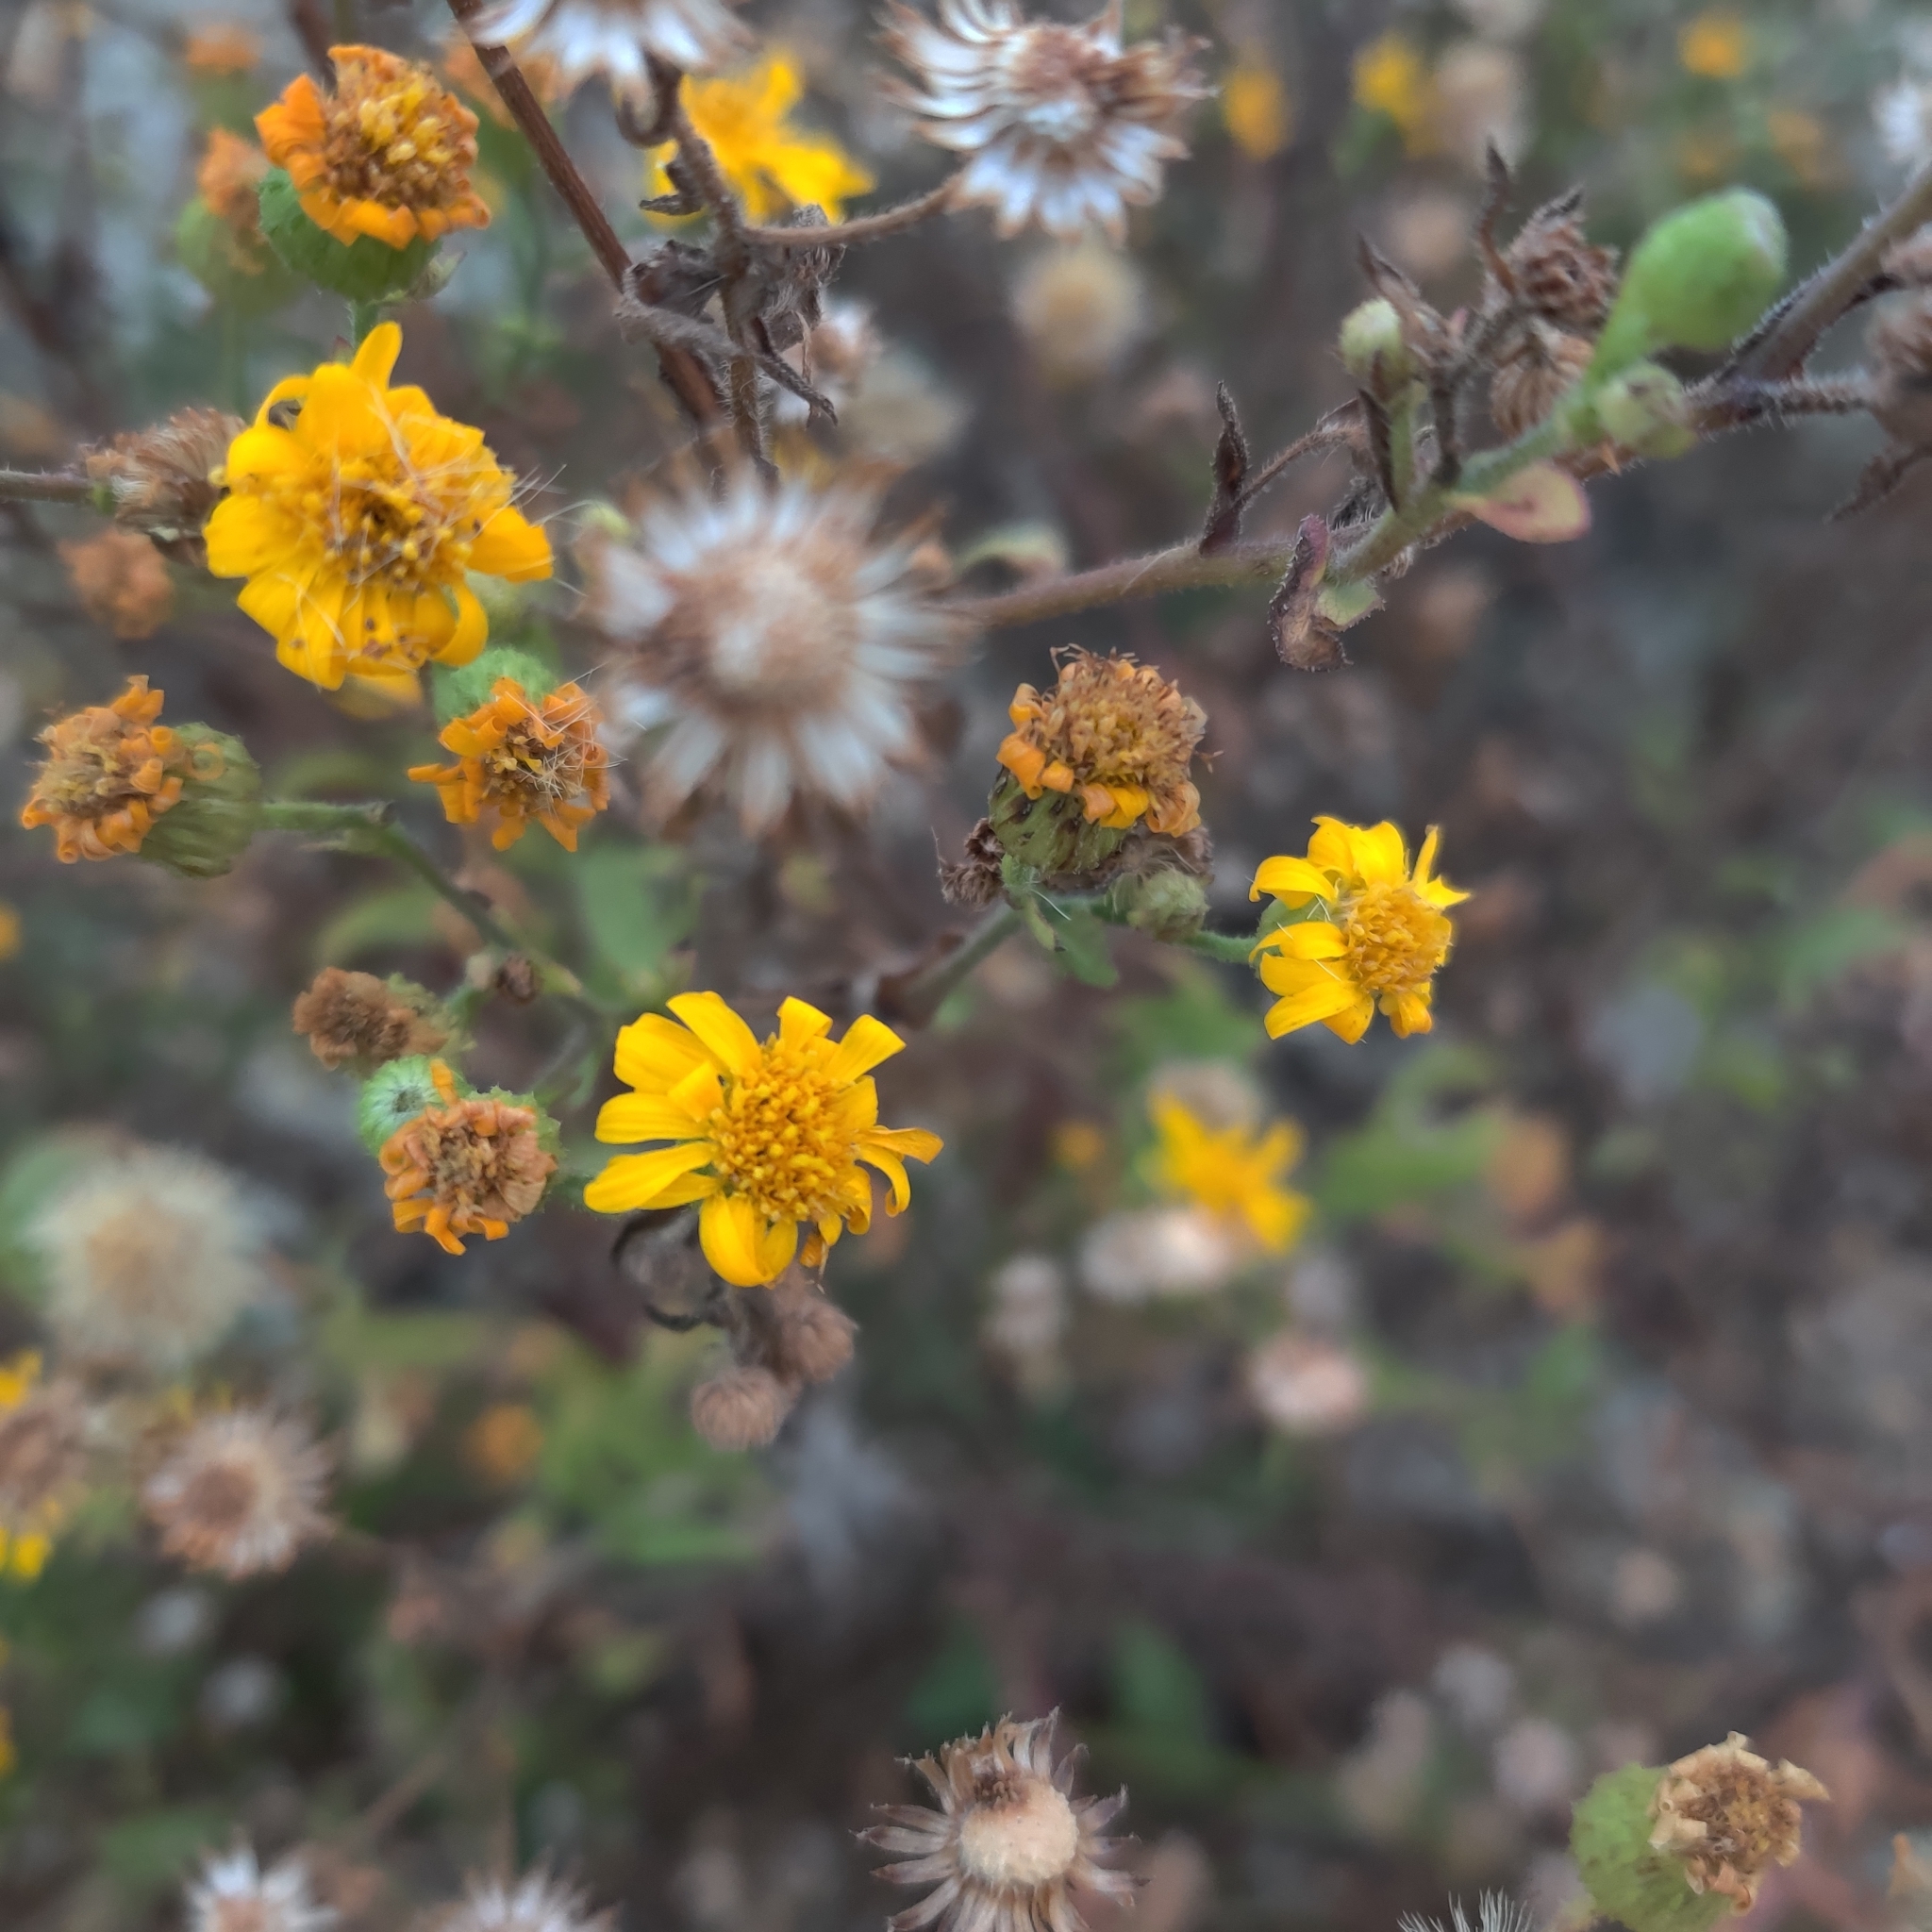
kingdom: Plantae
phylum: Tracheophyta
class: Magnoliopsida
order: Asterales
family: Asteraceae
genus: Heterotheca
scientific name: Heterotheca subaxillaris
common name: Camphorweed
